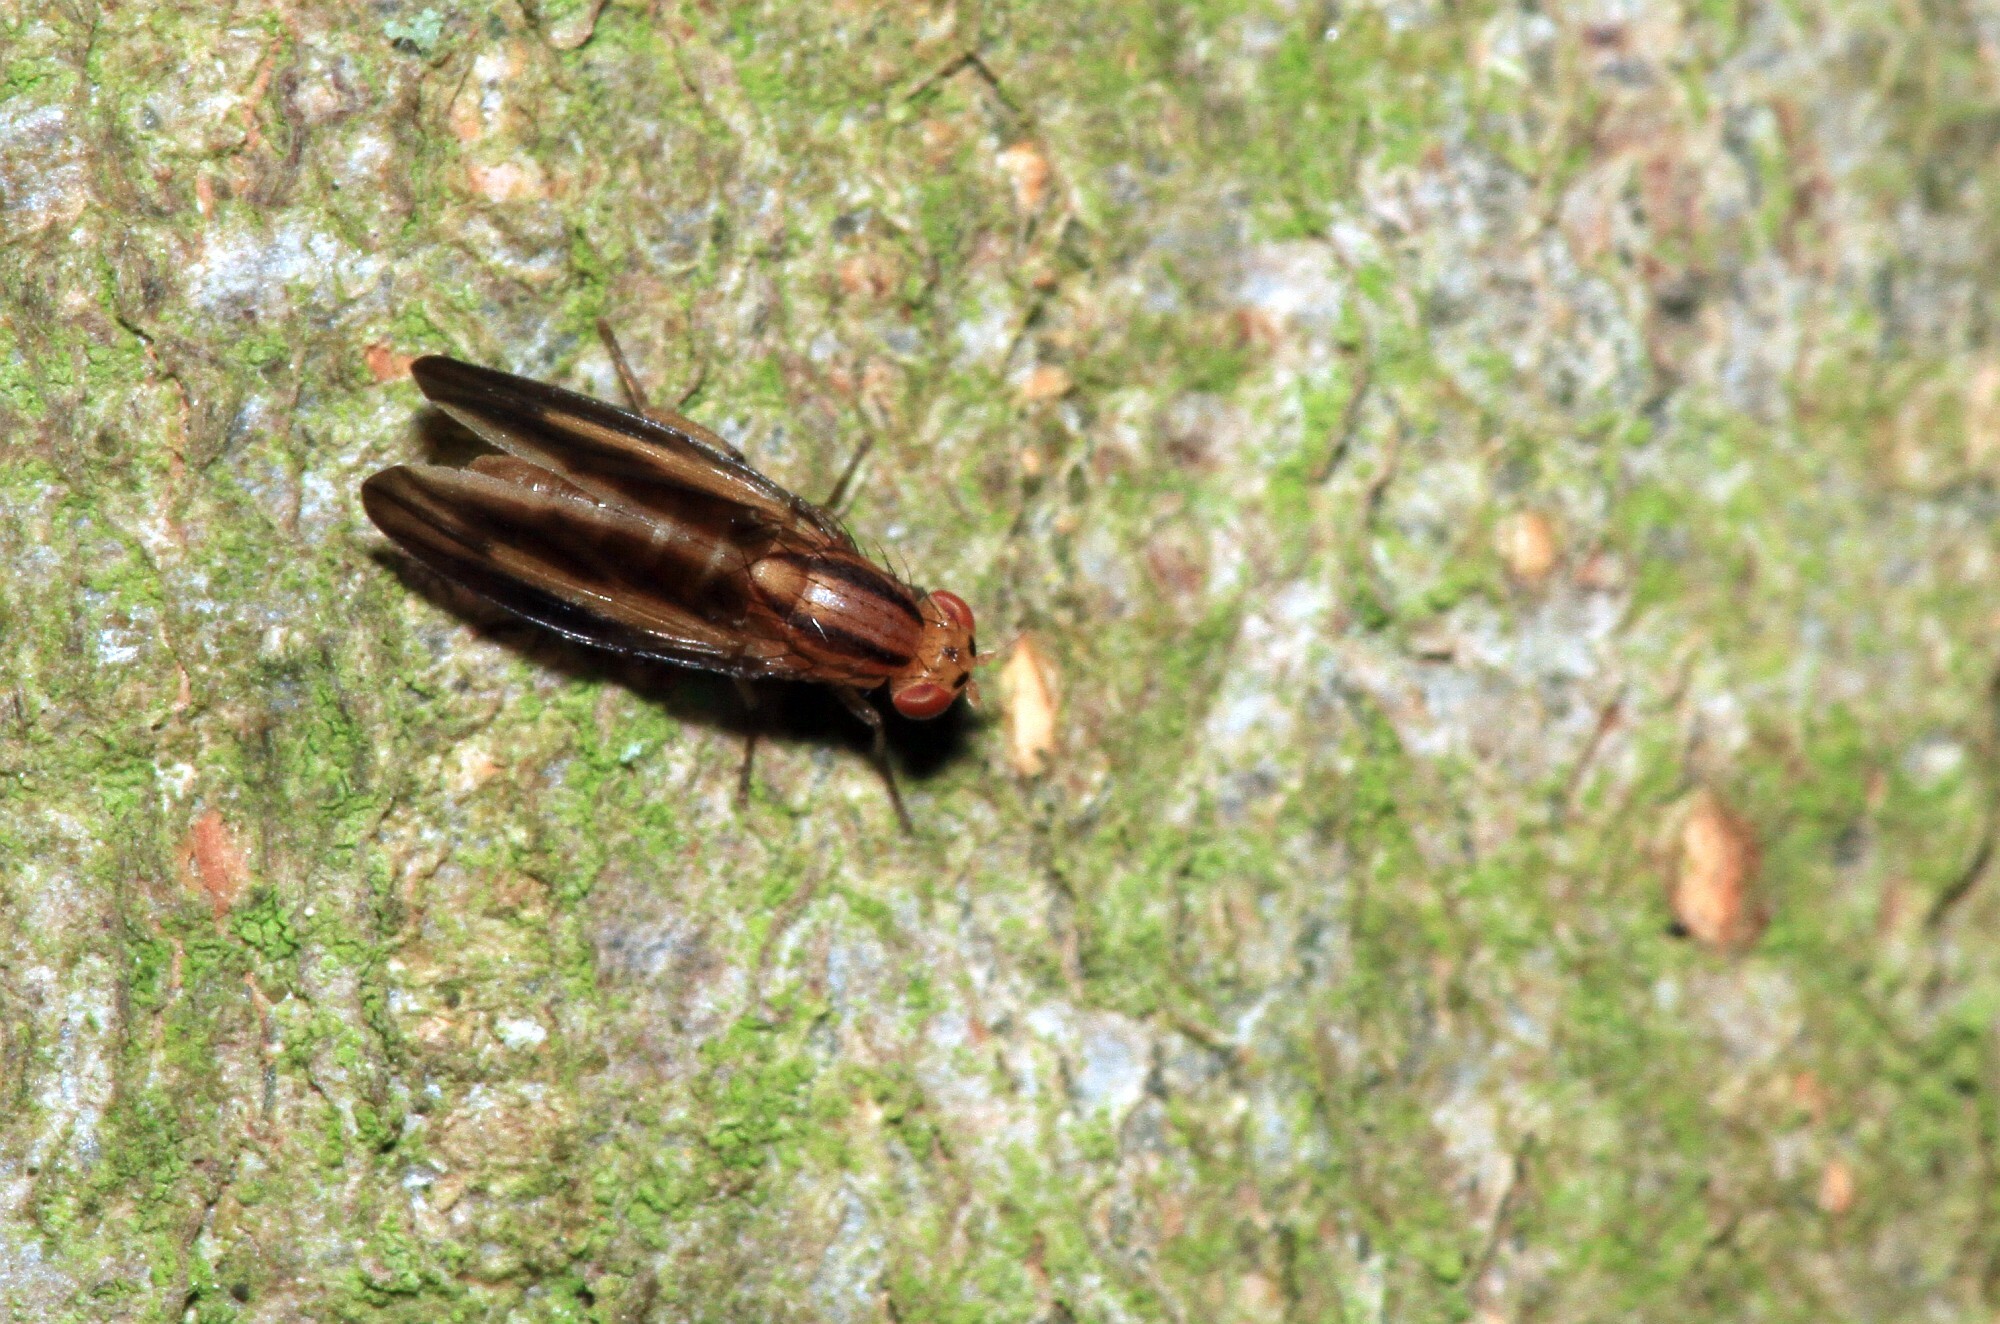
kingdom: Animalia
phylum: Arthropoda
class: Insecta
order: Diptera
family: Lauxaniidae
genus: Peplomyza
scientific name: Peplomyza discoidea
